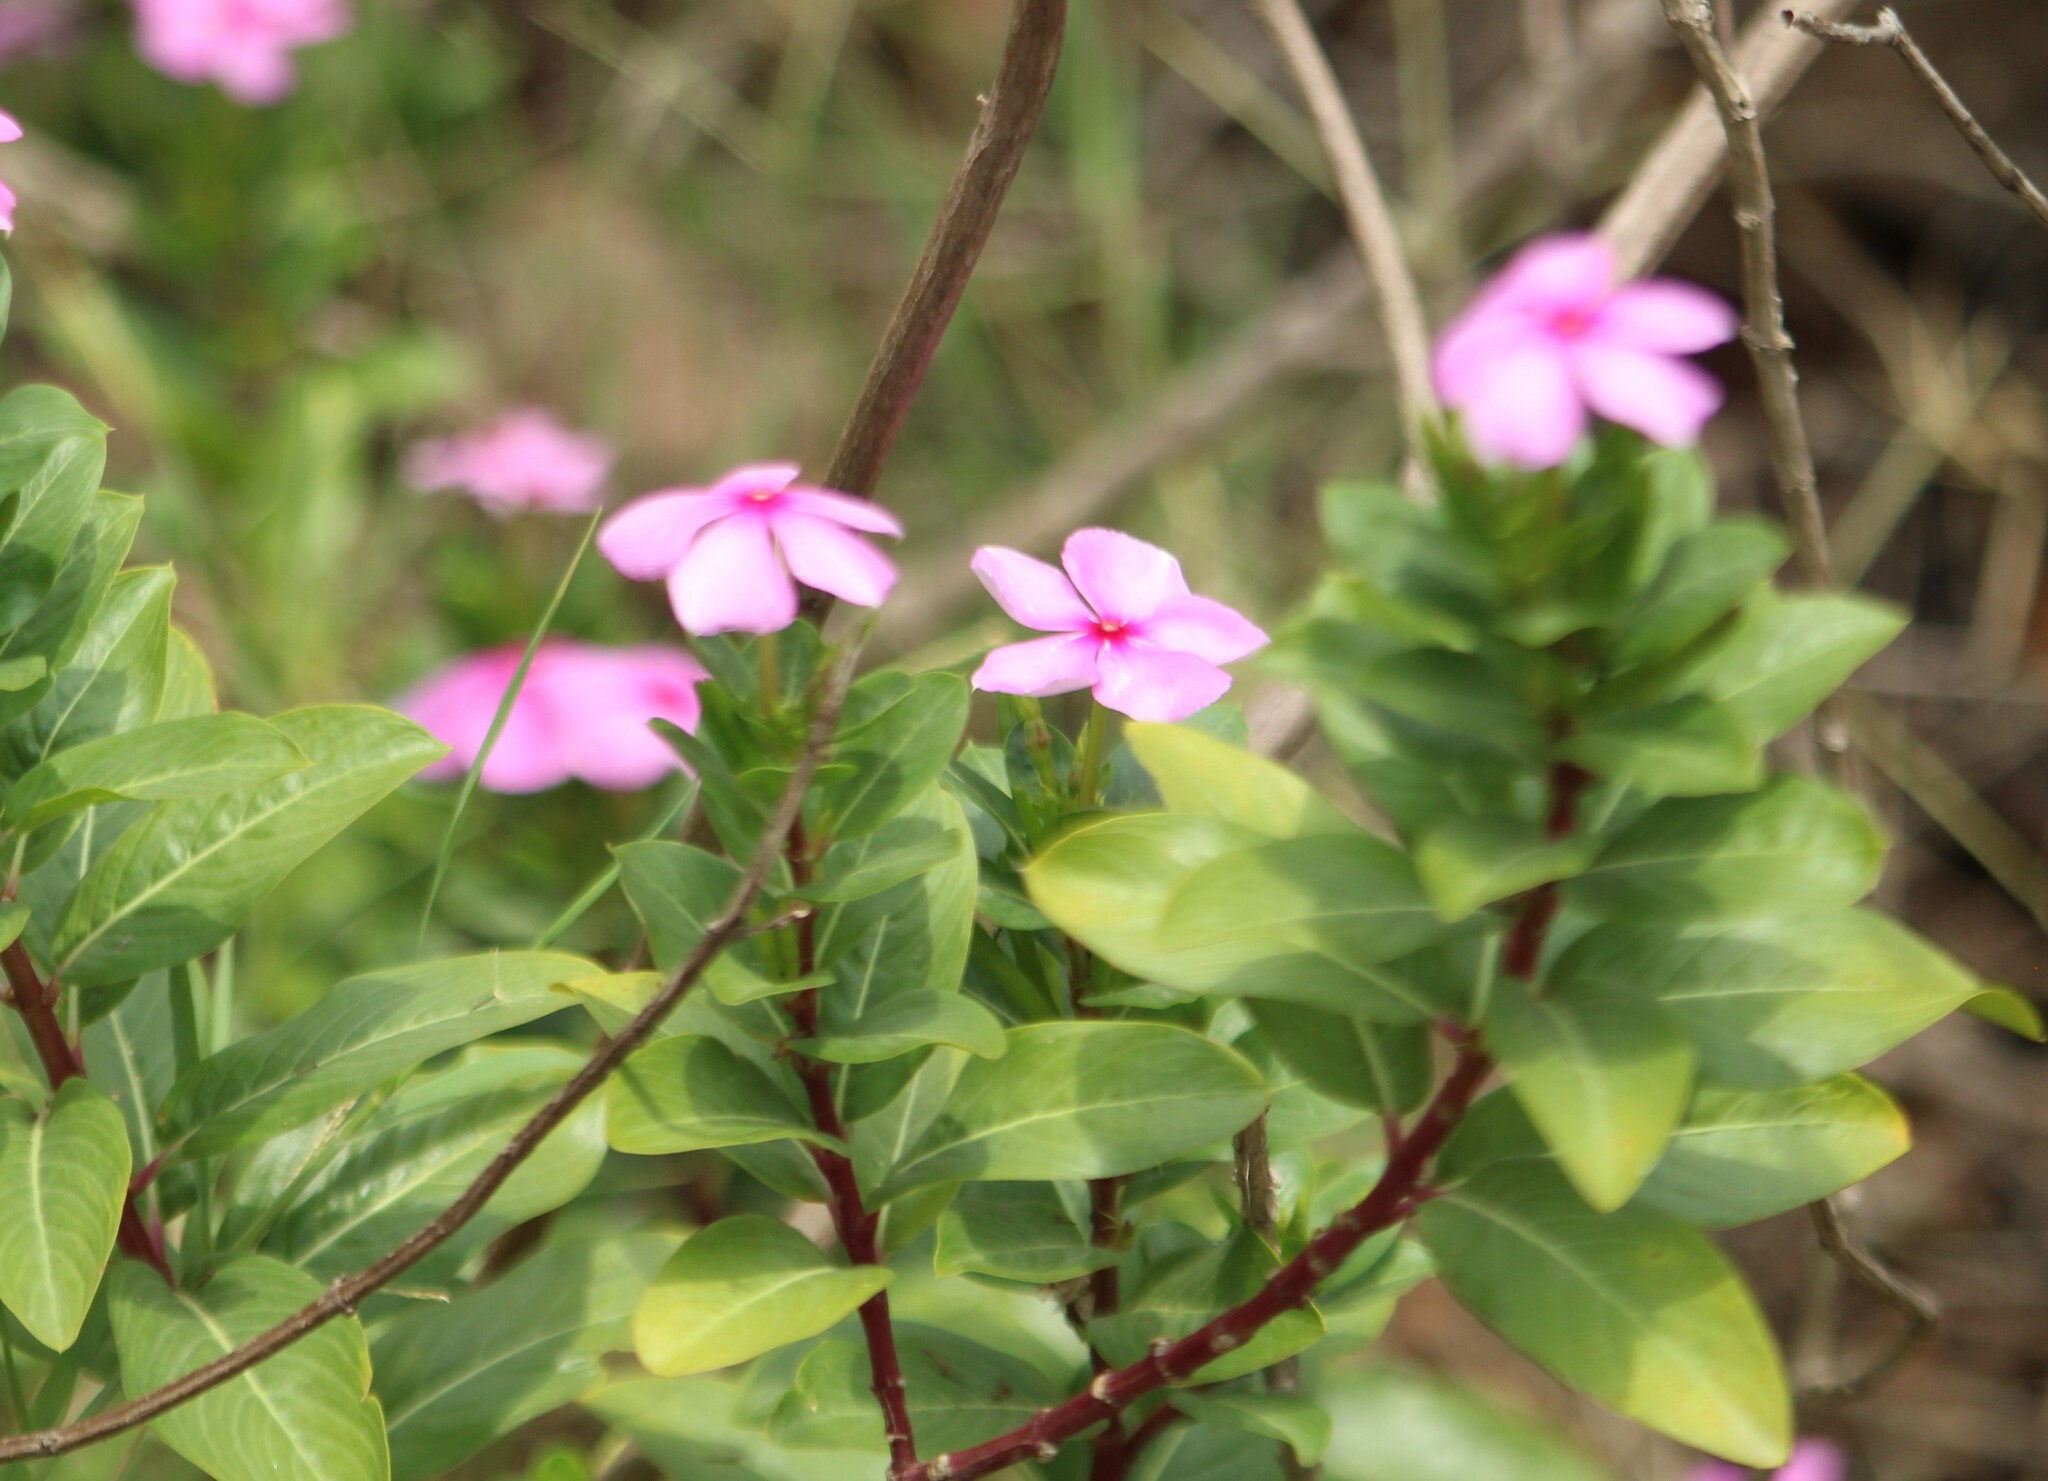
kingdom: Plantae
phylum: Tracheophyta
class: Magnoliopsida
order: Gentianales
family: Apocynaceae
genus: Catharanthus
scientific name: Catharanthus roseus
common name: Madagascar periwinkle
